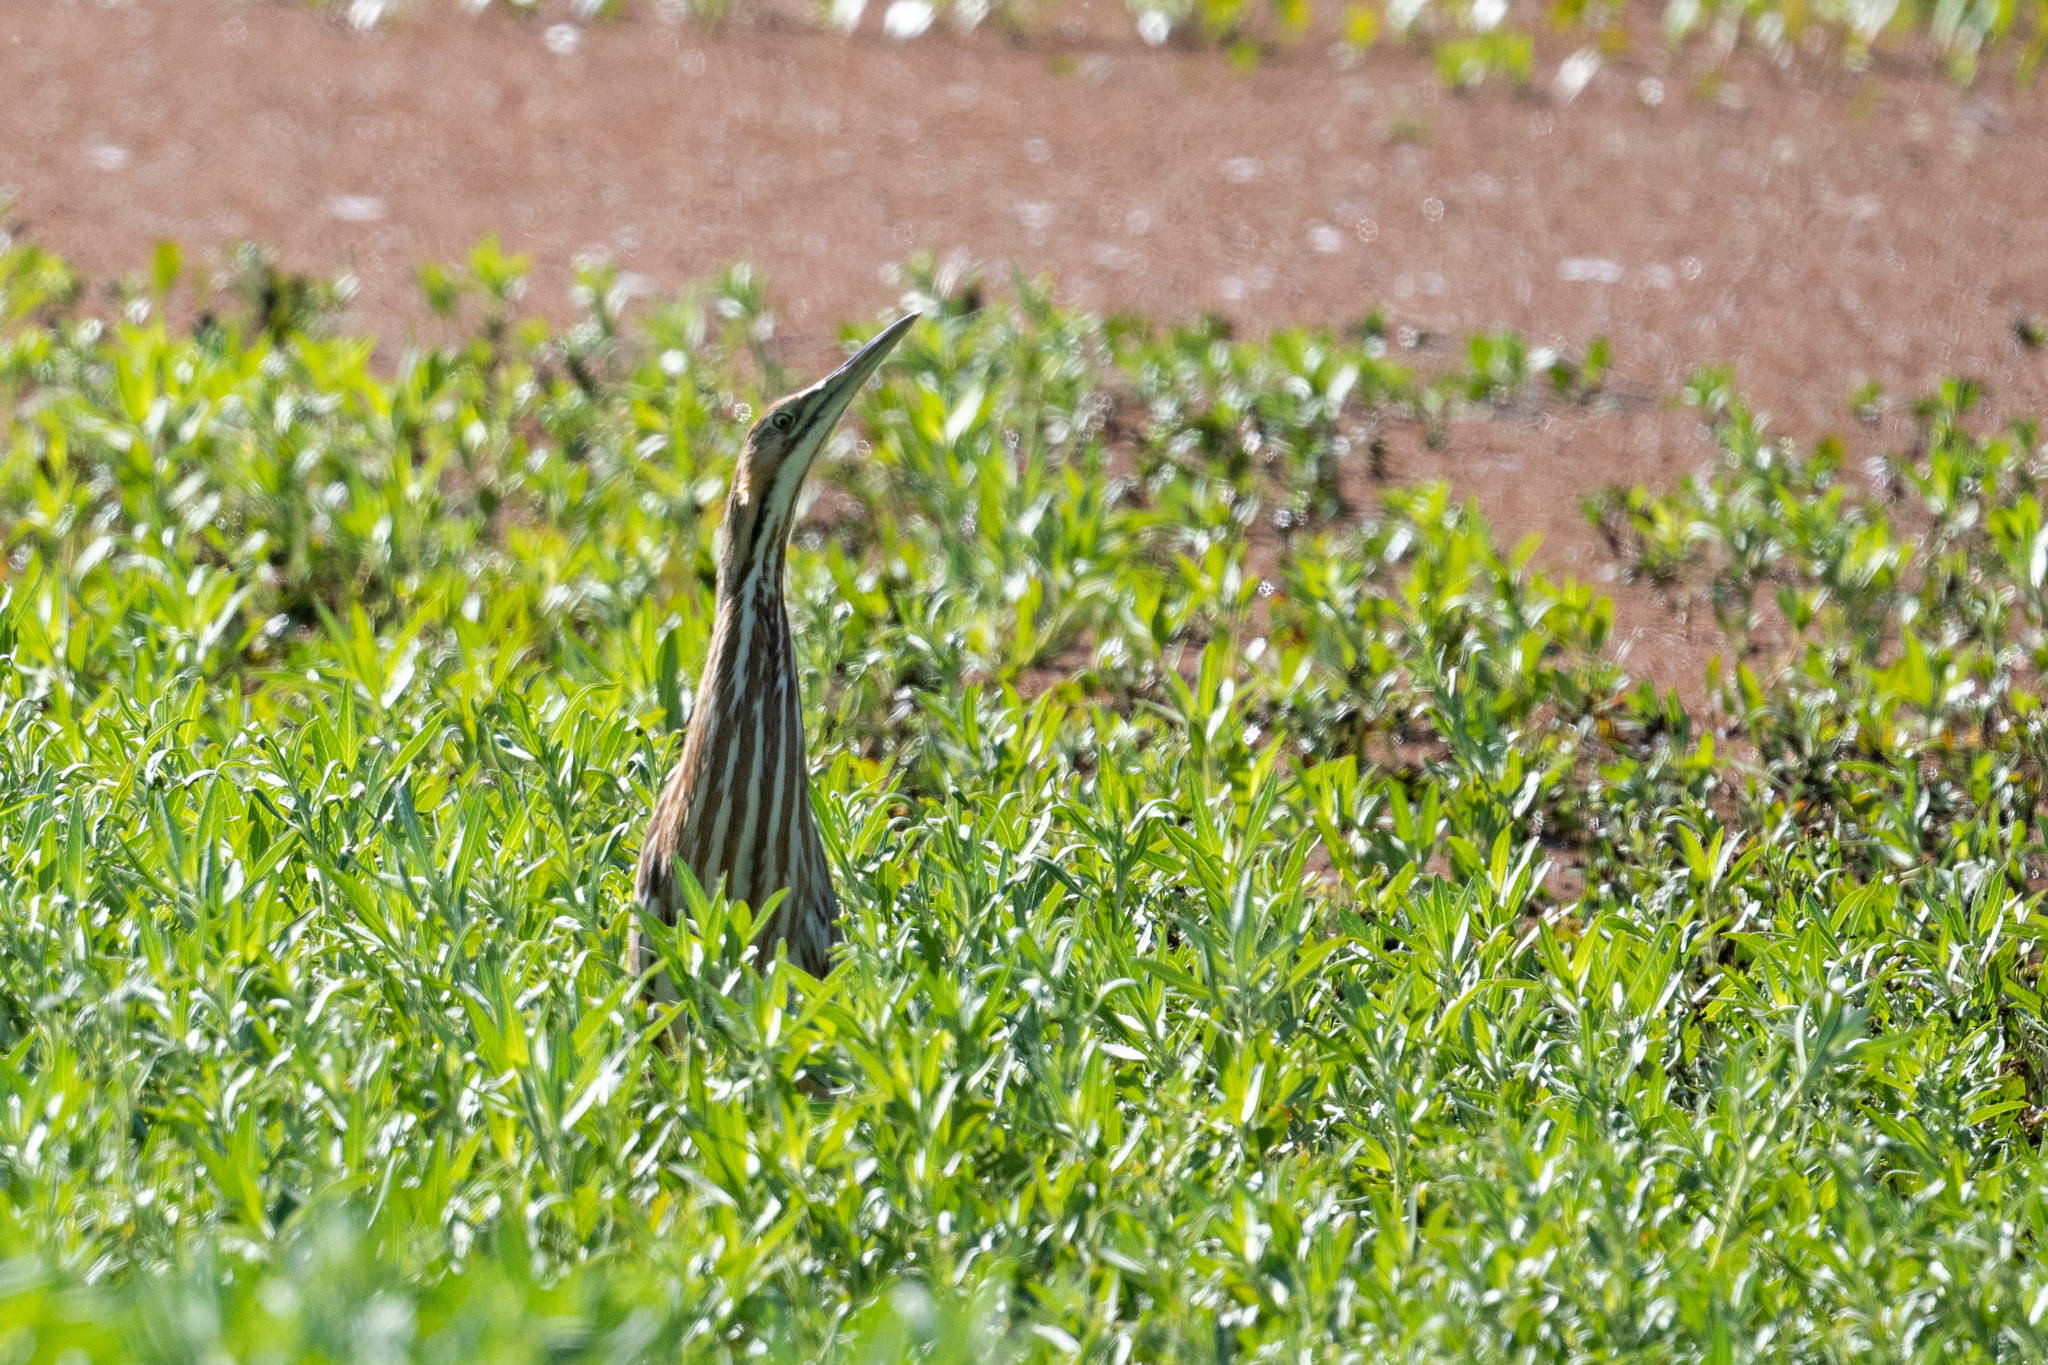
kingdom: Animalia
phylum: Chordata
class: Aves
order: Pelecaniformes
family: Ardeidae
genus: Botaurus
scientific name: Botaurus lentiginosus
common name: American bittern
